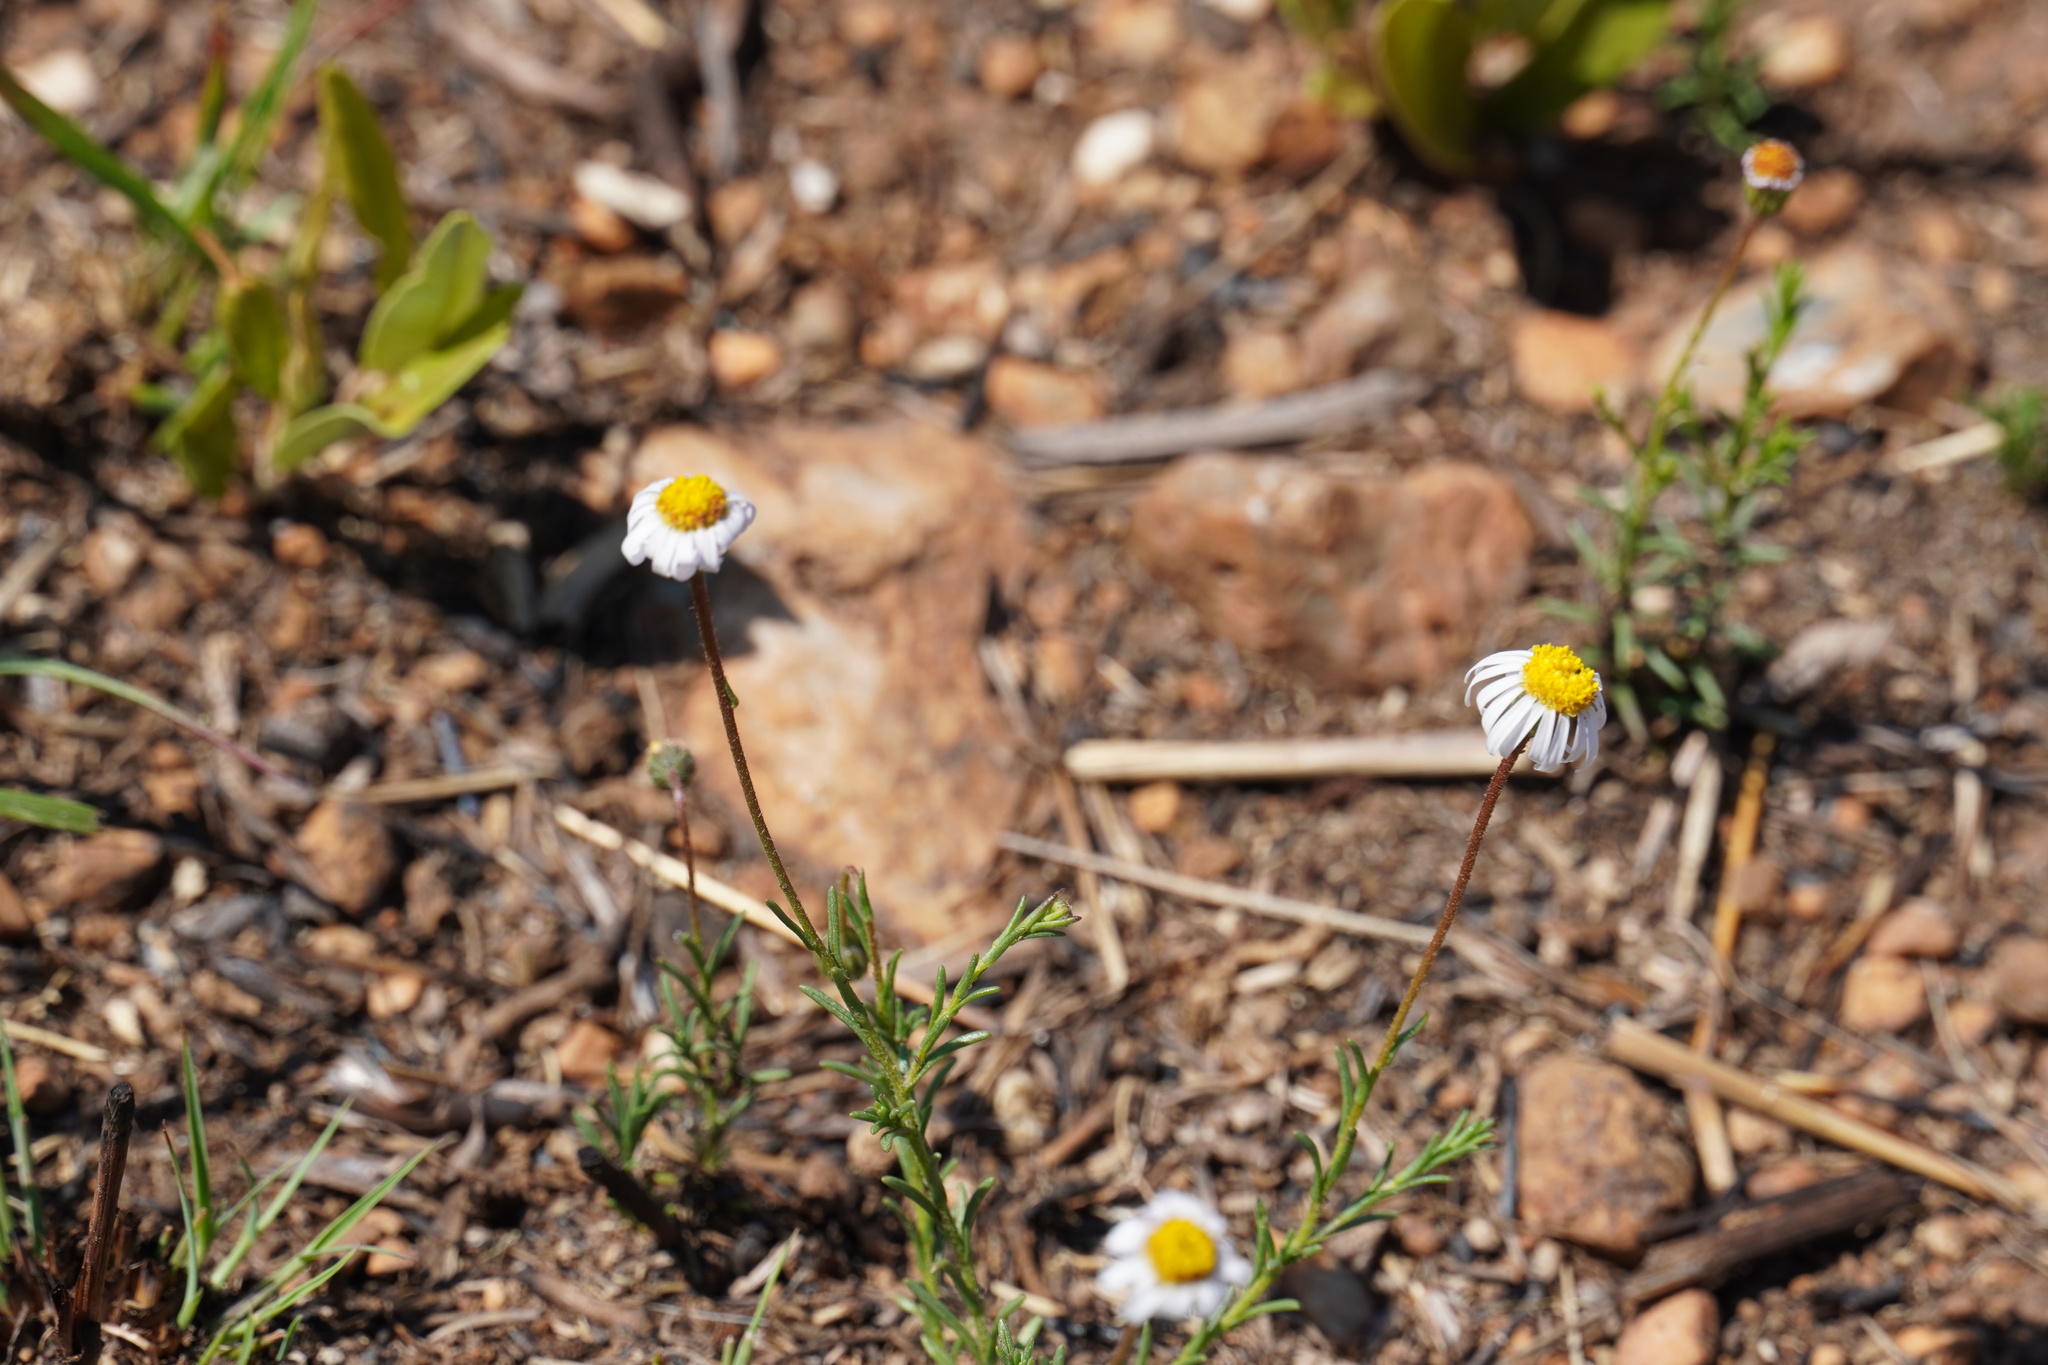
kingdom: Plantae
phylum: Tracheophyta
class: Magnoliopsida
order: Asterales
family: Asteraceae
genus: Felicia
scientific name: Felicia muricata
